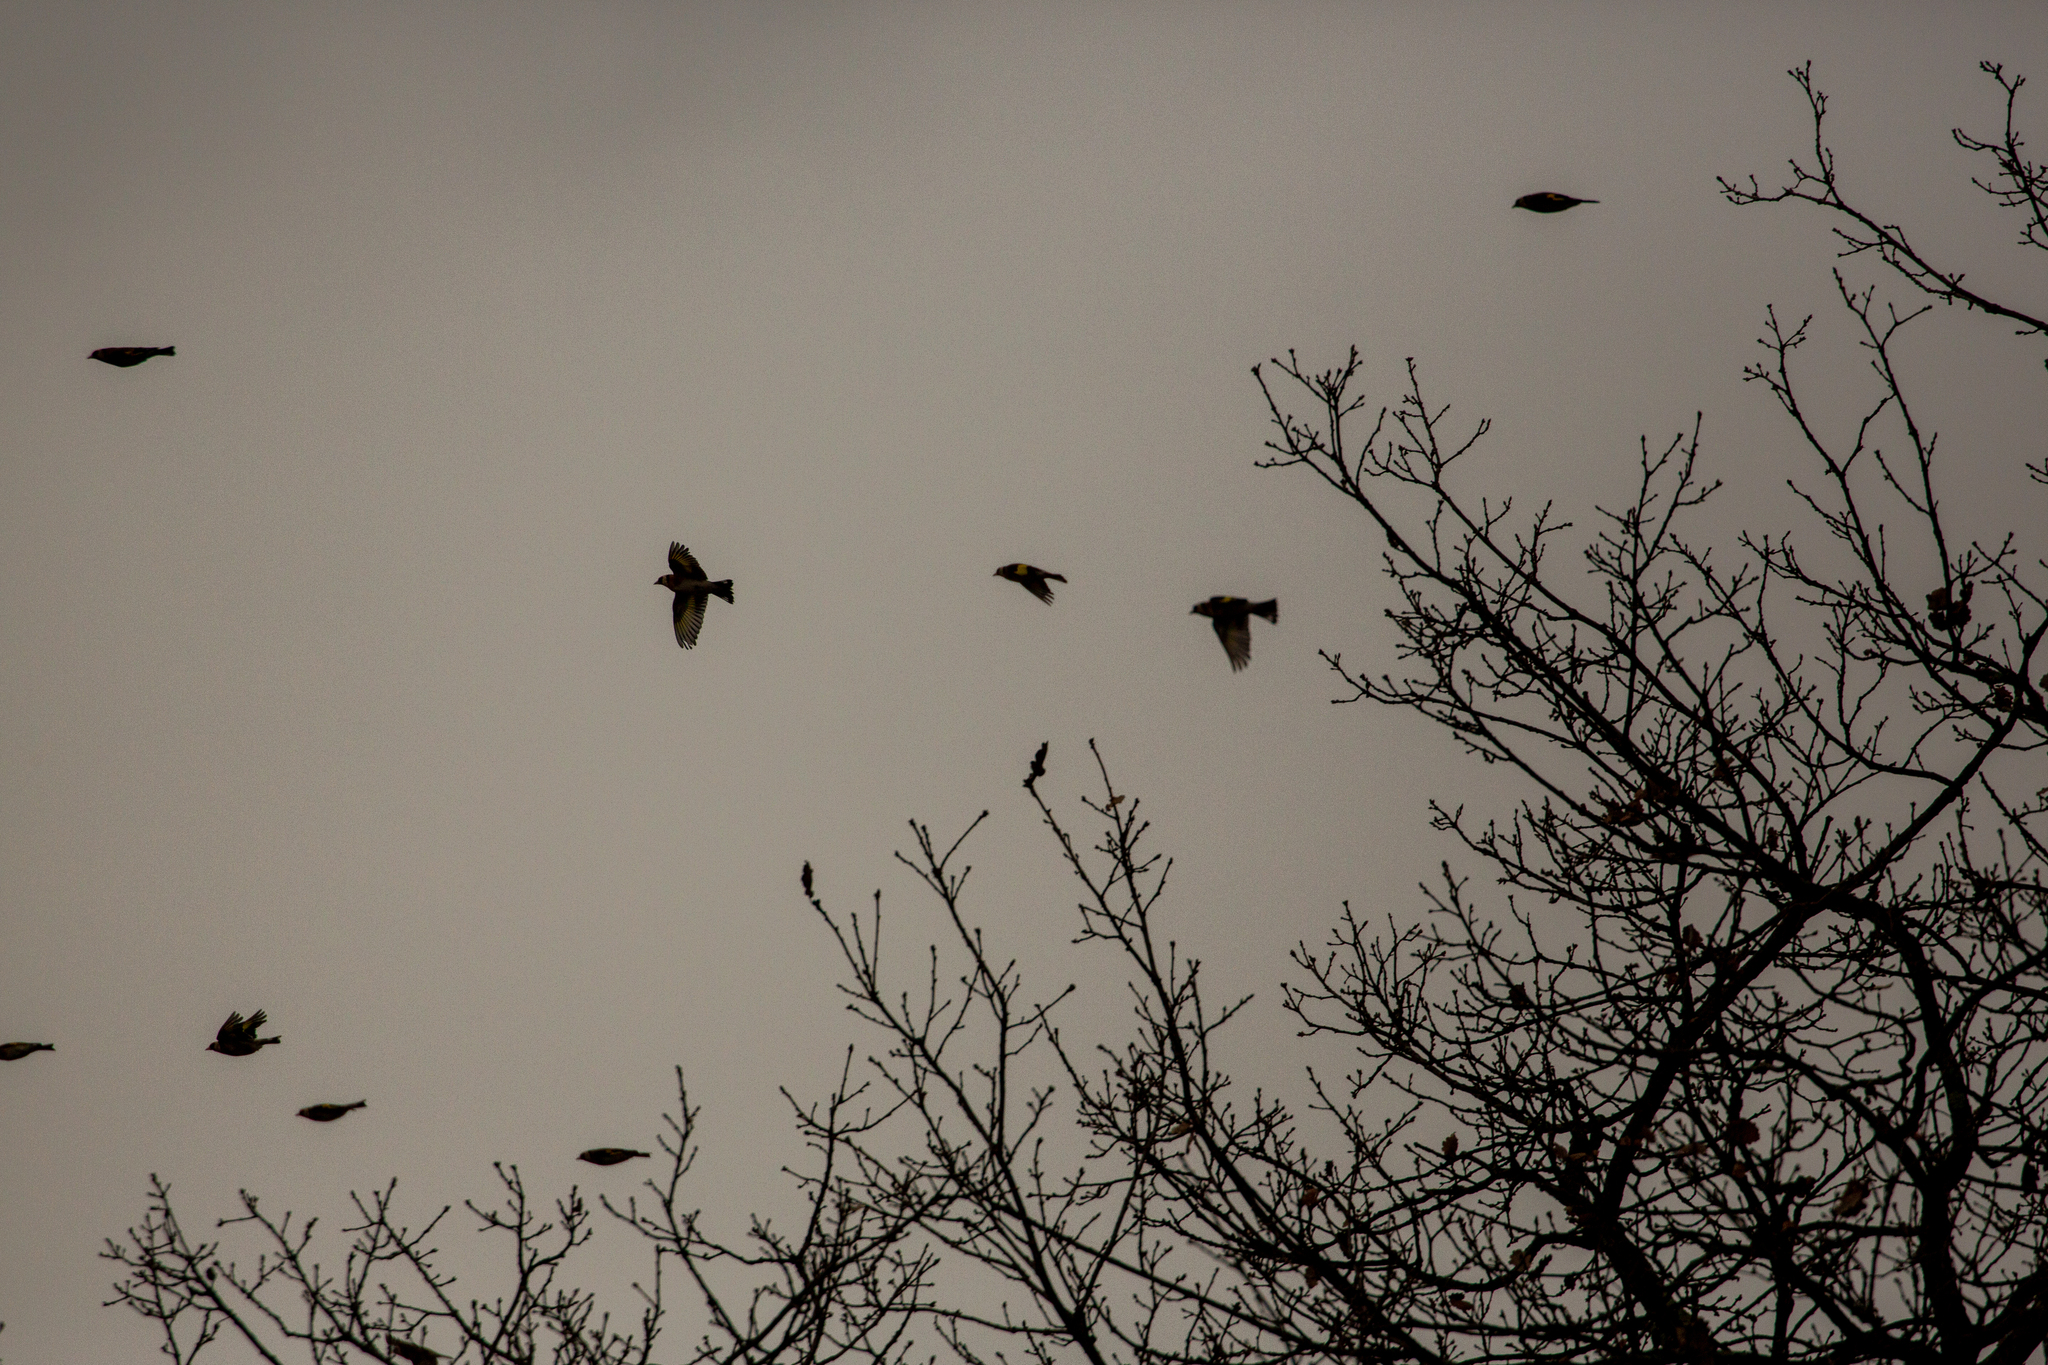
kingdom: Animalia
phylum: Chordata
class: Aves
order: Passeriformes
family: Fringillidae
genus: Carduelis
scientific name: Carduelis carduelis
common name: European goldfinch
